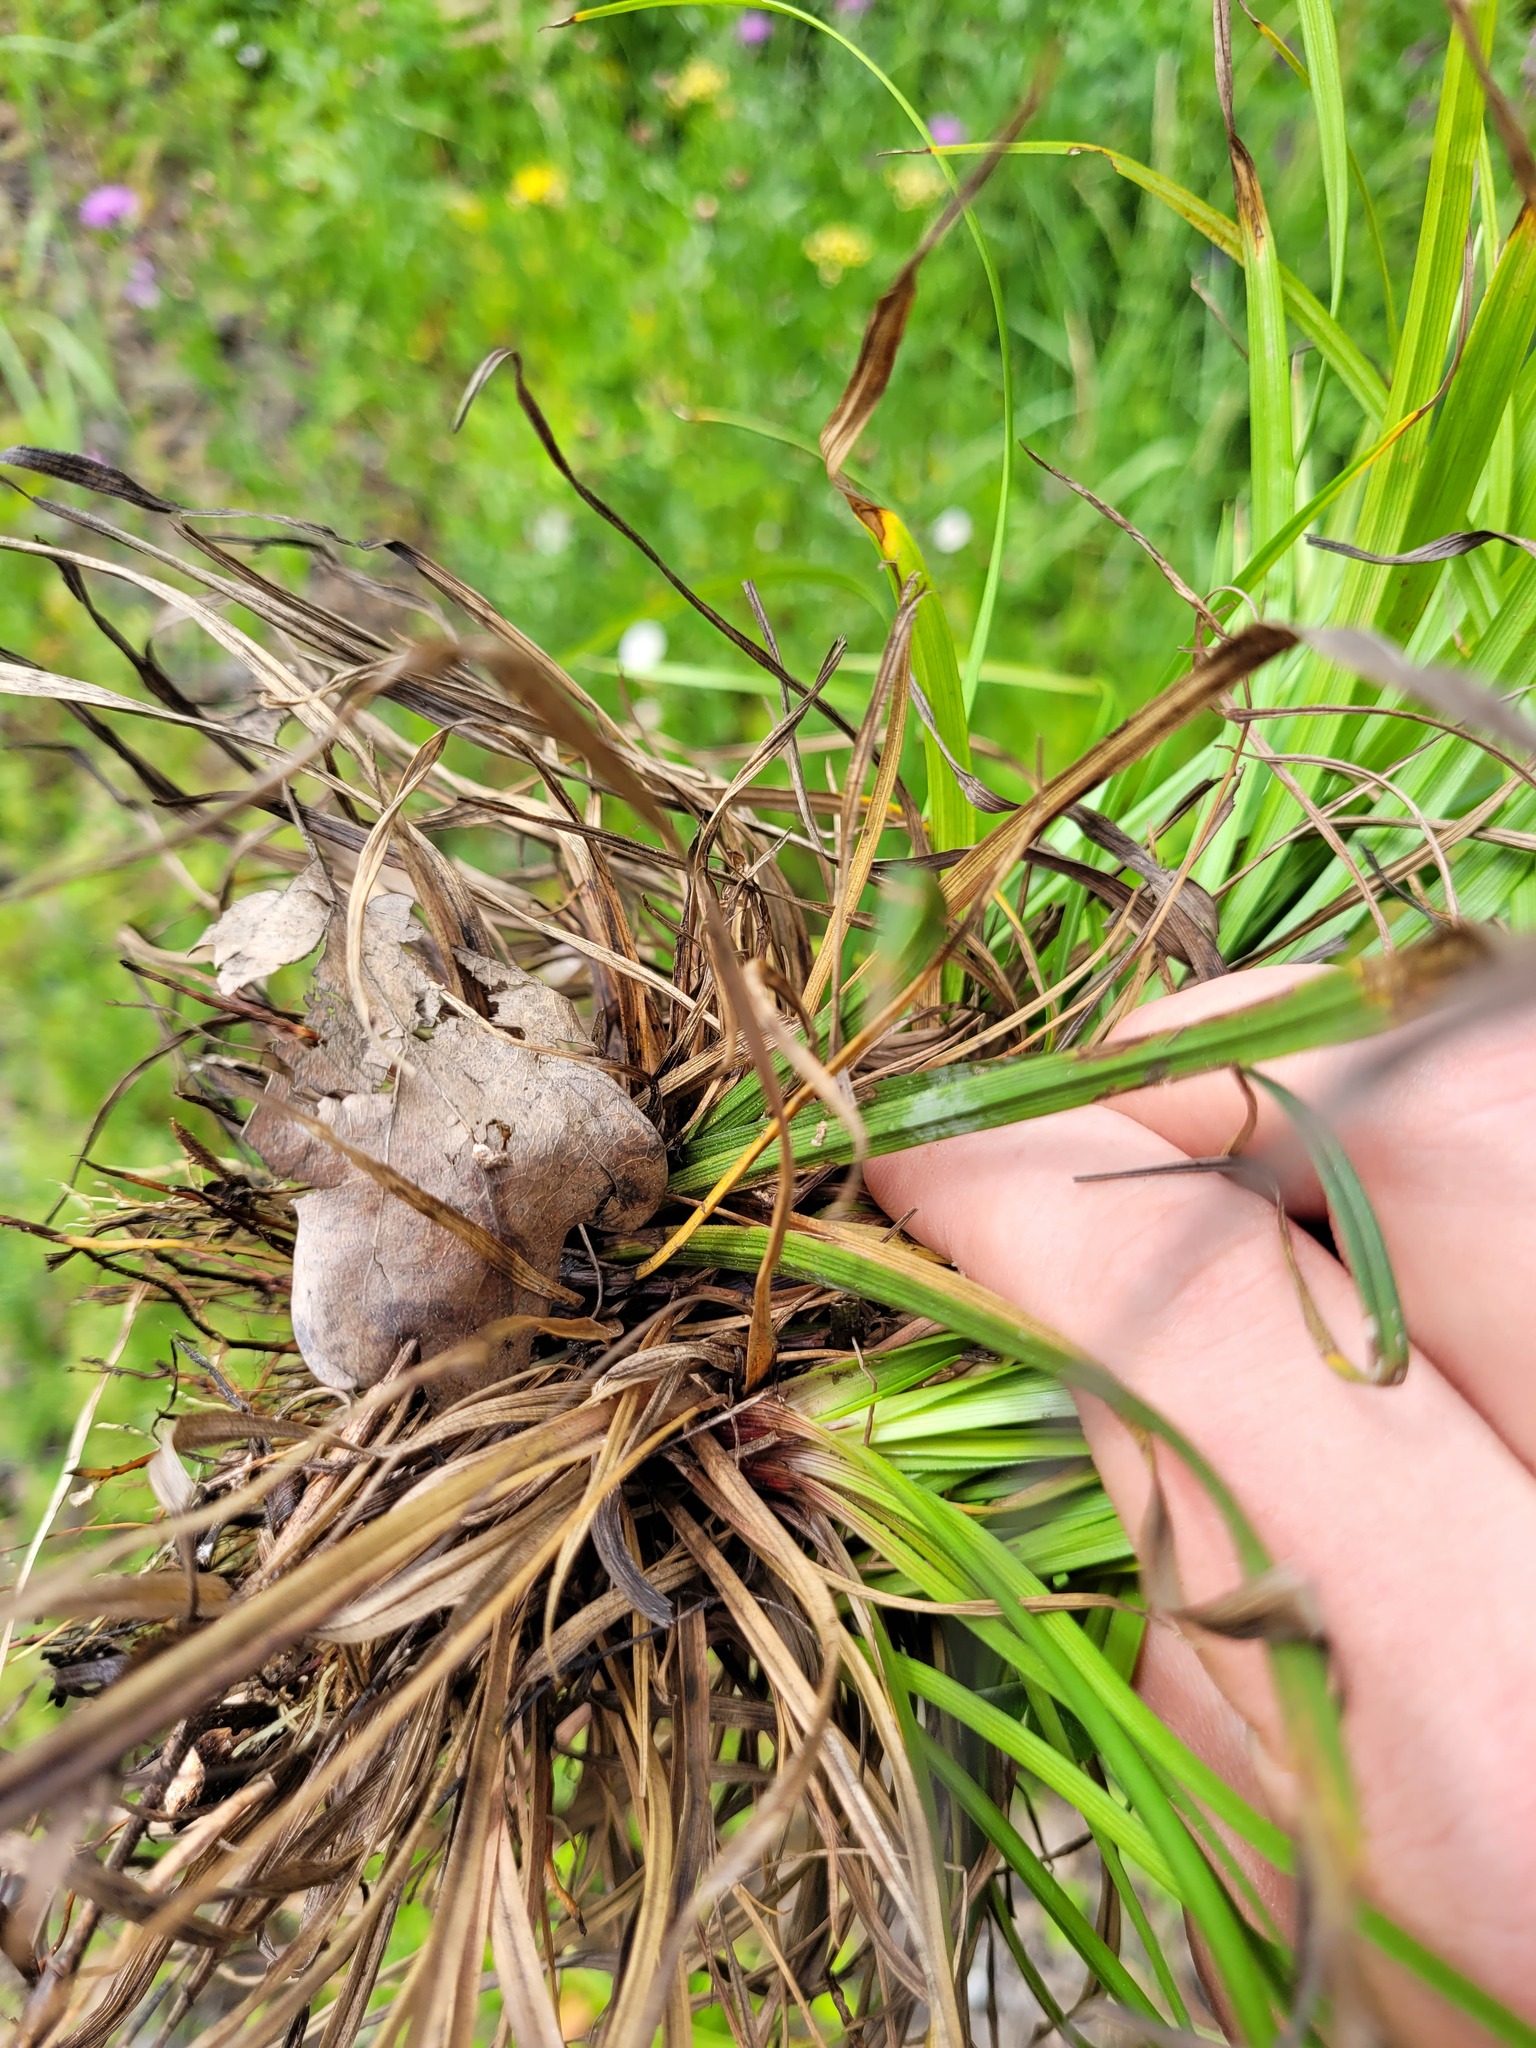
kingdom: Plantae
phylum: Tracheophyta
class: Liliopsida
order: Poales
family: Cyperaceae
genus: Carex
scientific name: Carex digitata
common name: Fingered sedge
